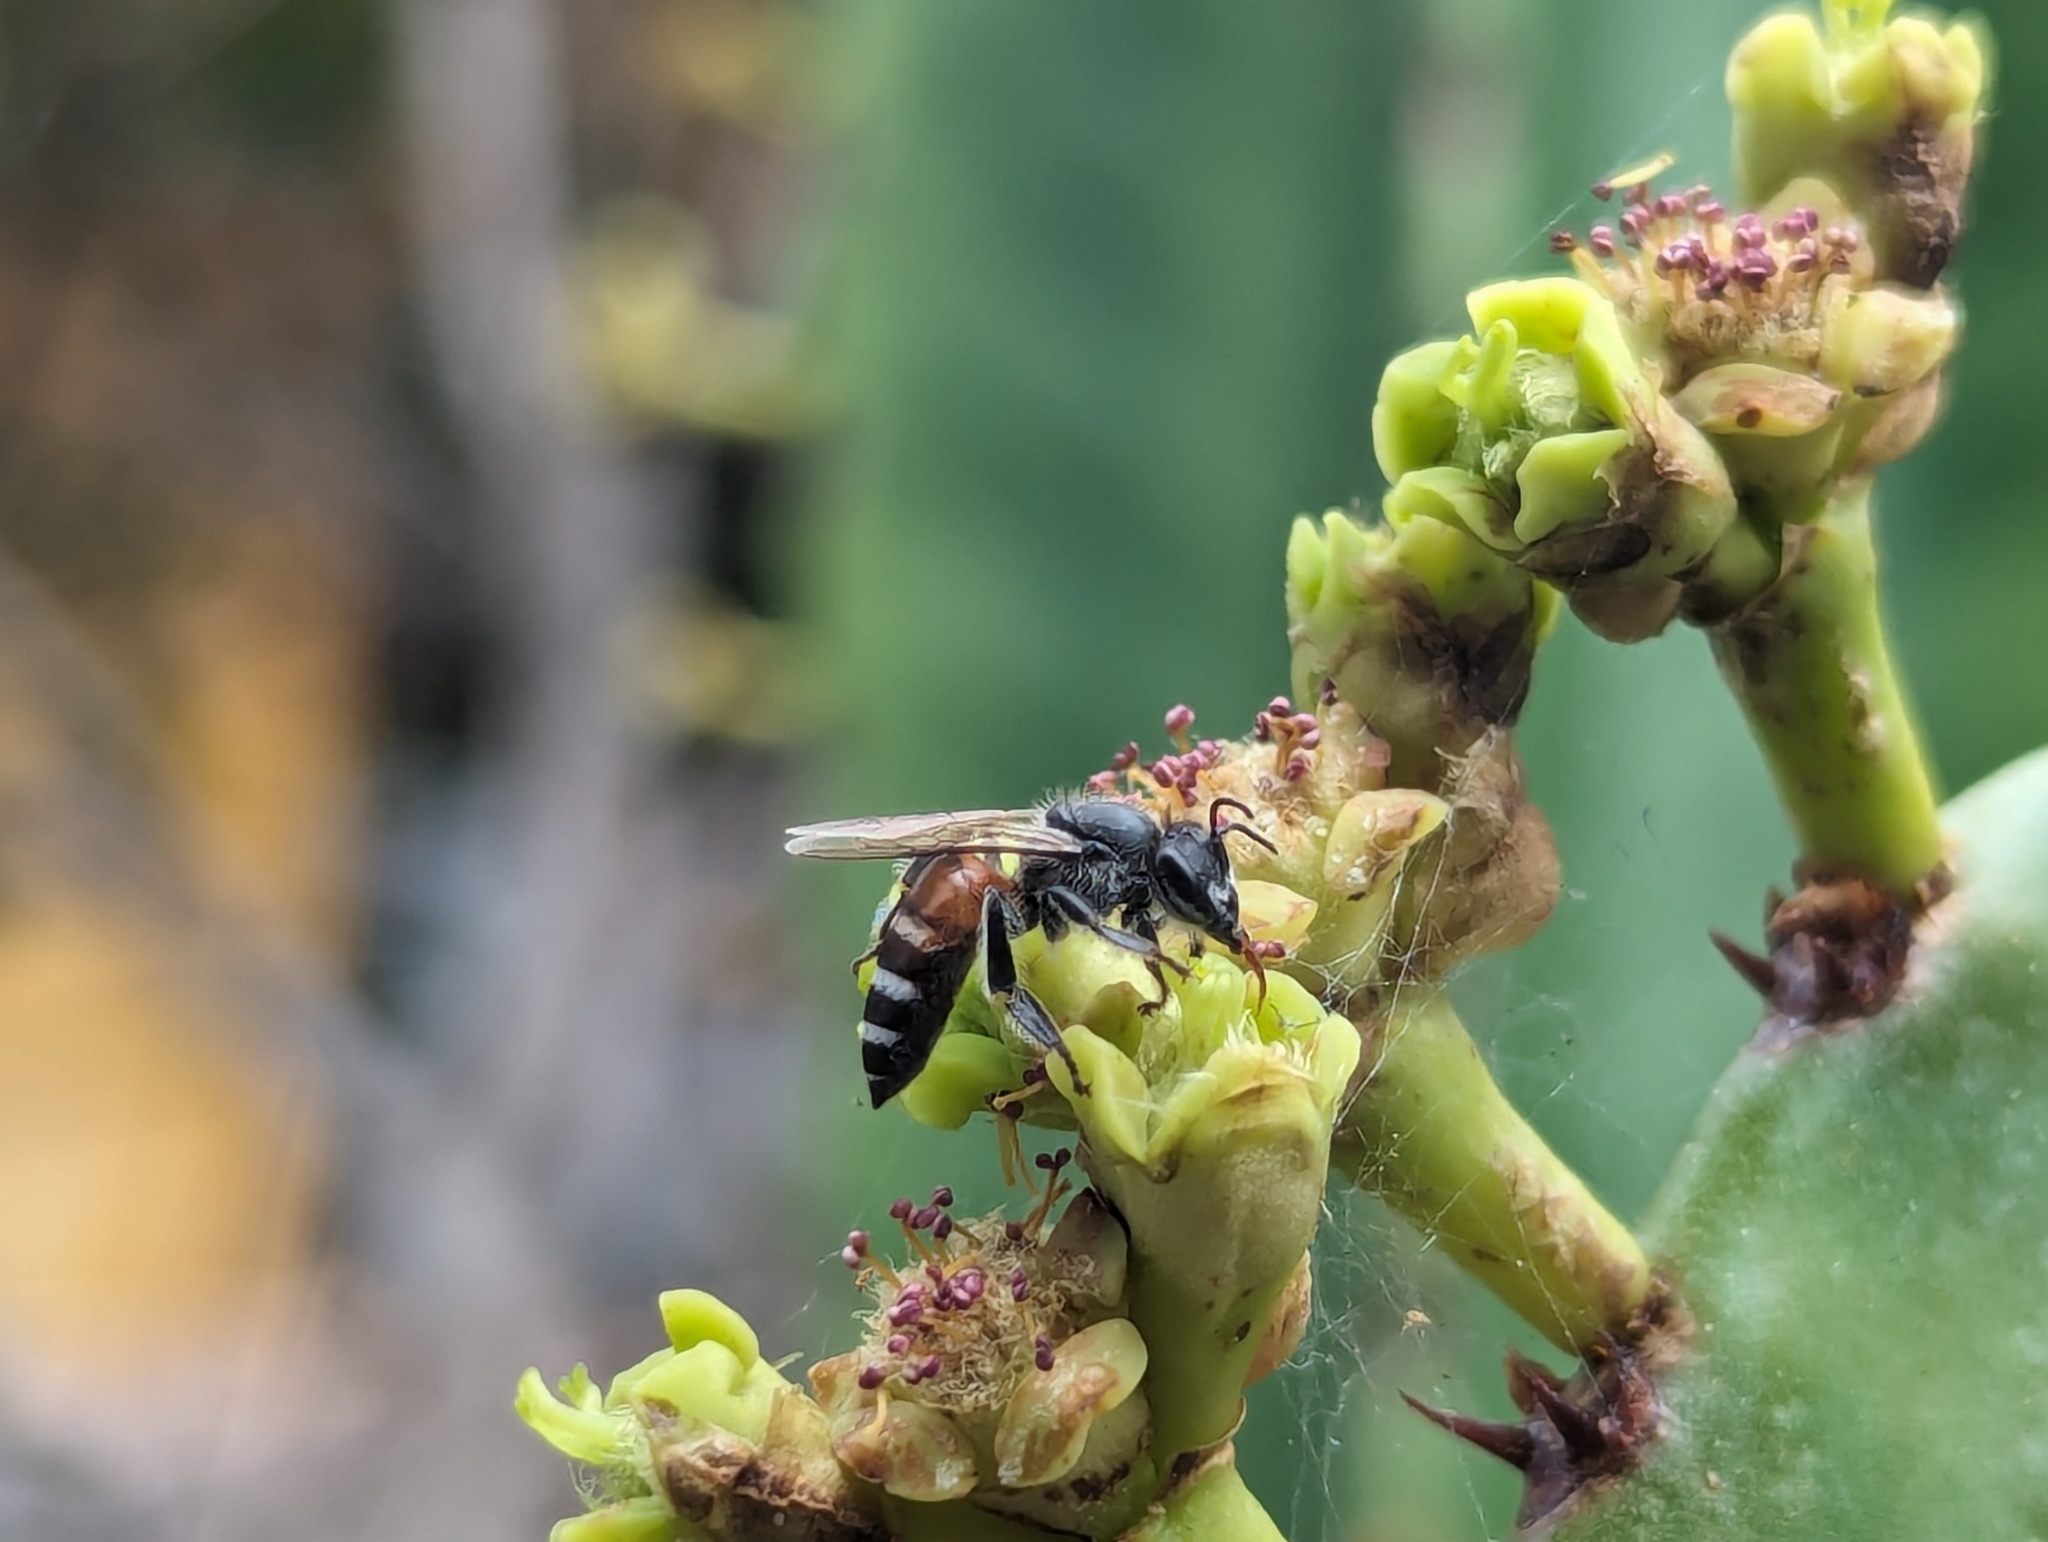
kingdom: Animalia
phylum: Arthropoda
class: Insecta
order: Hymenoptera
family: Apidae
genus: Apis
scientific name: Apis florea
